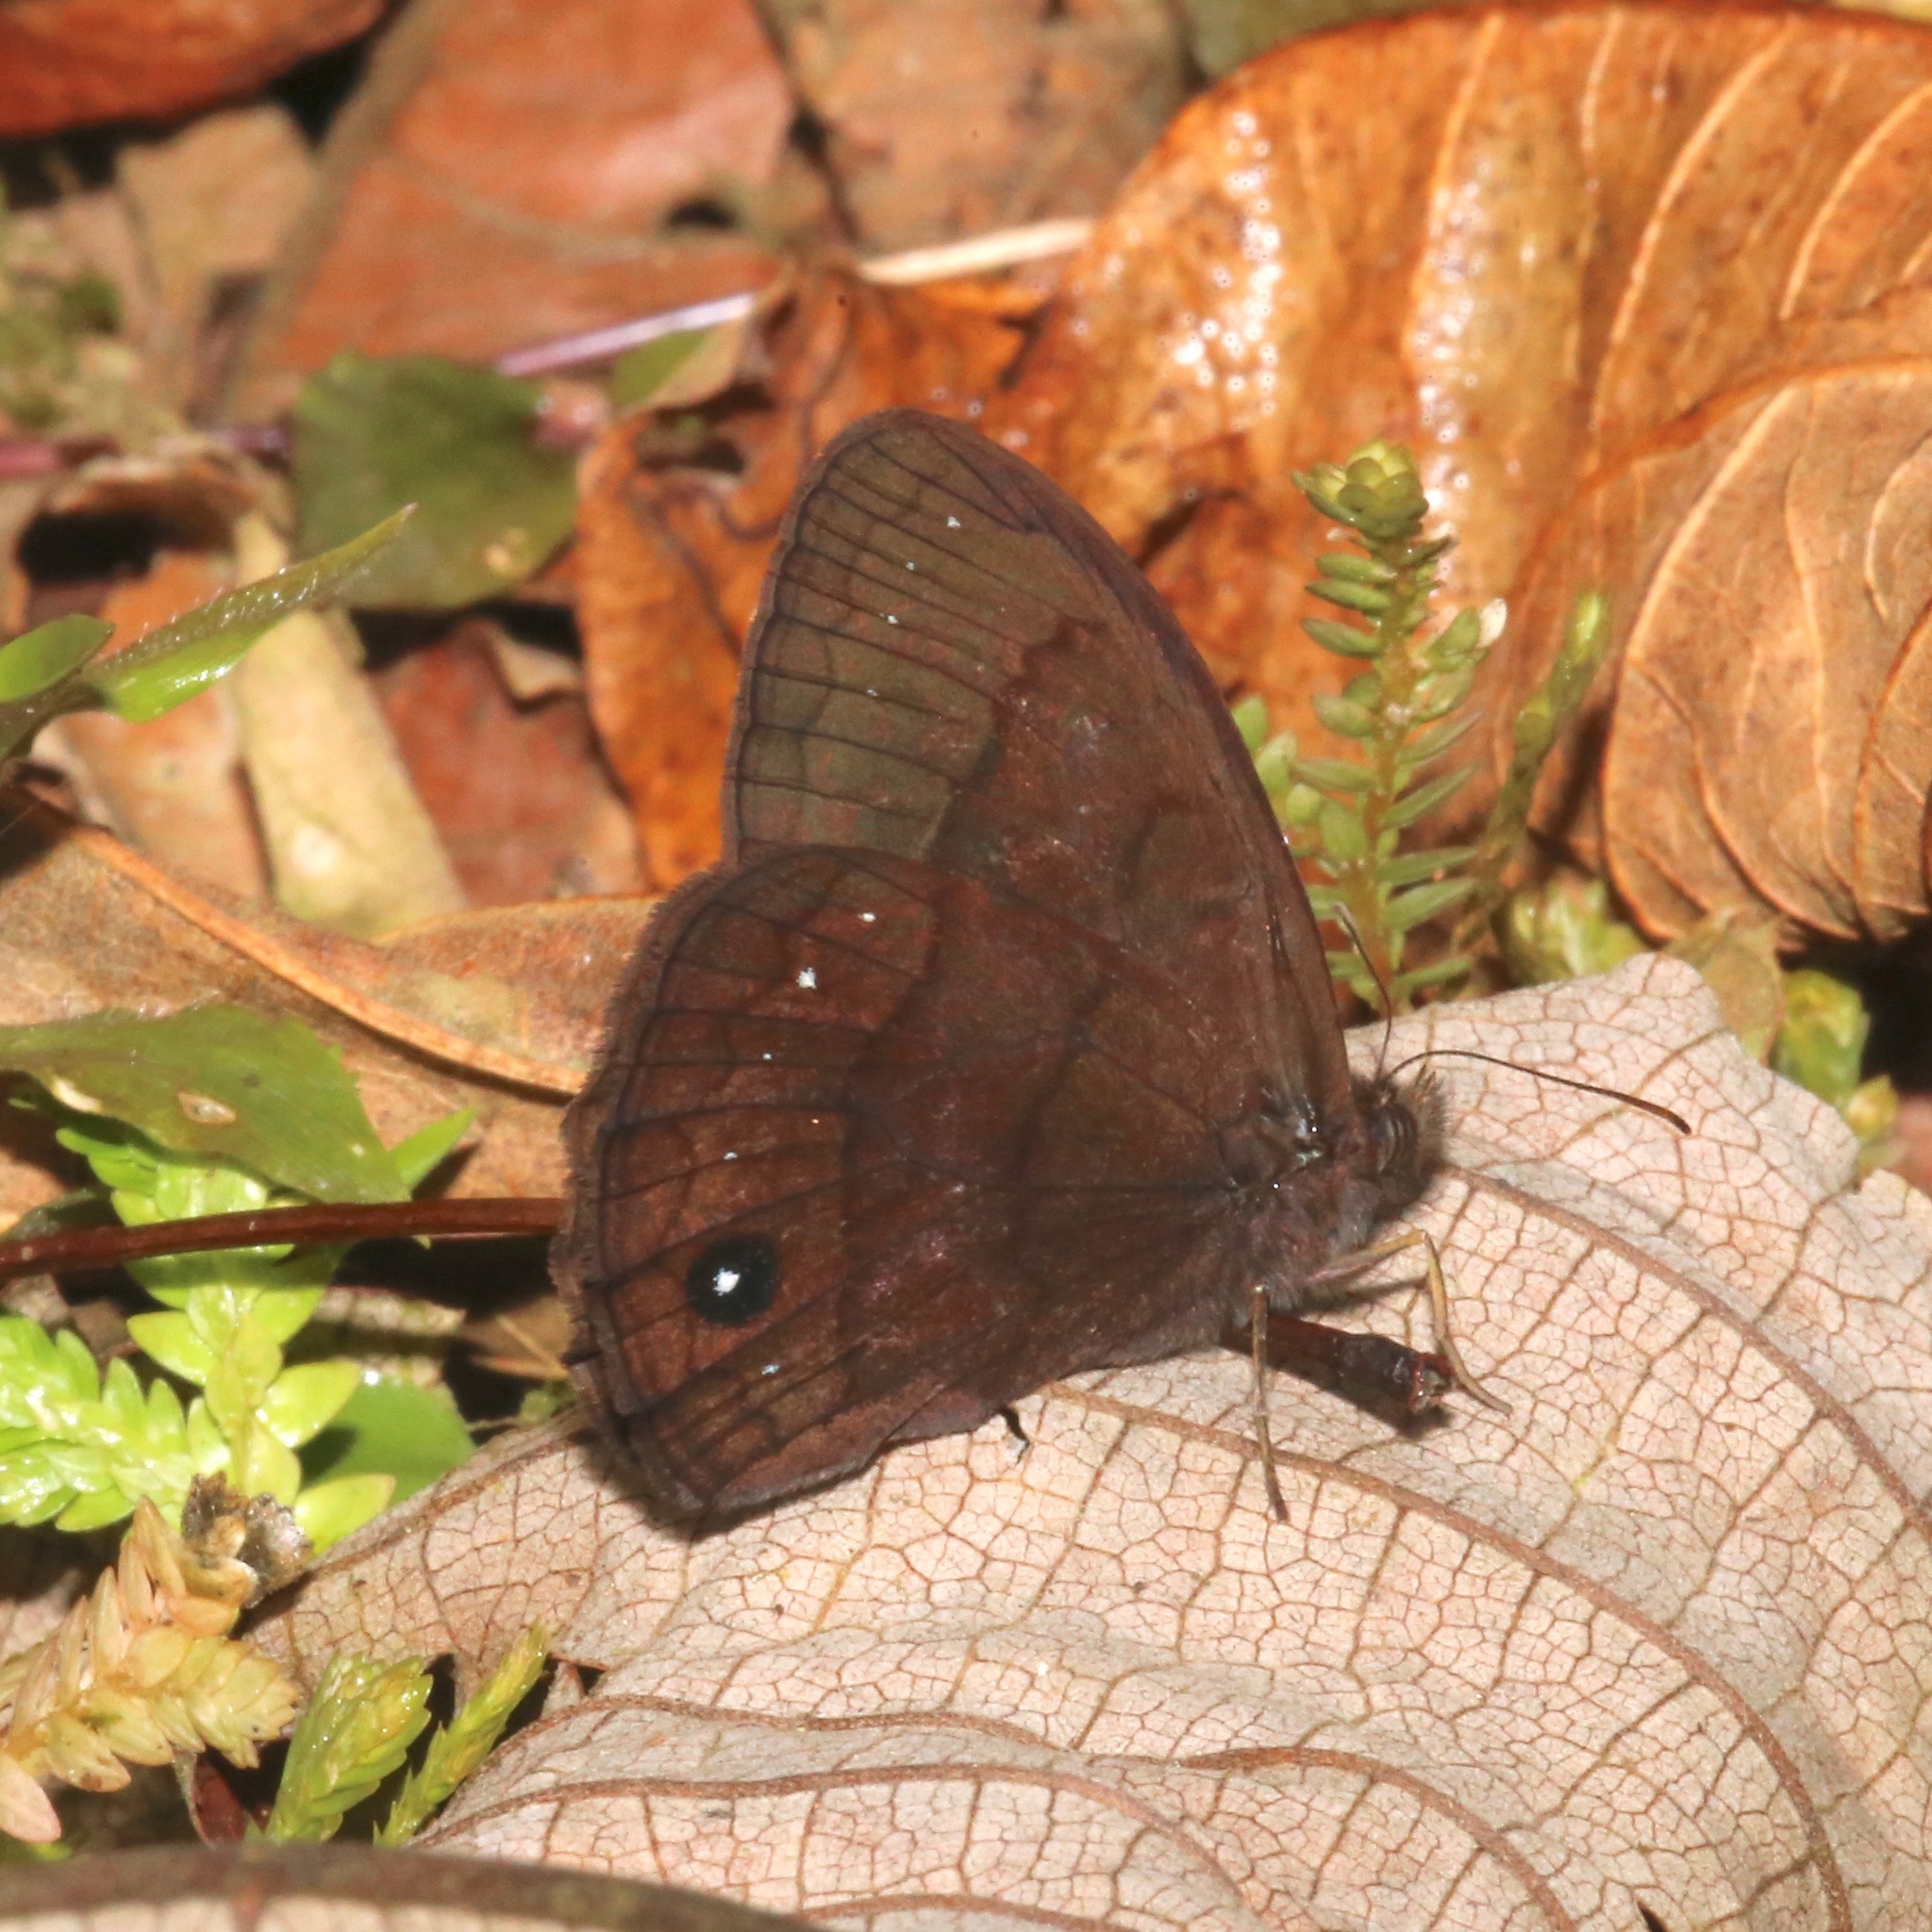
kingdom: Animalia
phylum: Arthropoda
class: Insecta
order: Lepidoptera
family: Nymphalidae
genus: Forsterinaria
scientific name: Forsterinaria neonympha
